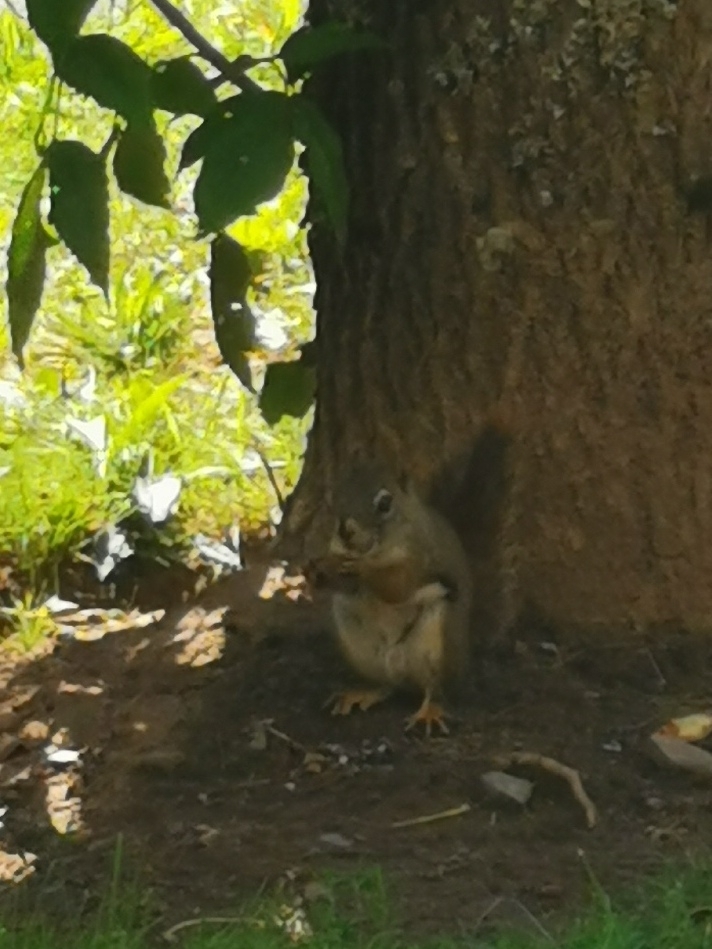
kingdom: Animalia
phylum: Chordata
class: Mammalia
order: Rodentia
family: Sciuridae
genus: Tamiasciurus
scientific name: Tamiasciurus hudsonicus
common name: Red squirrel
